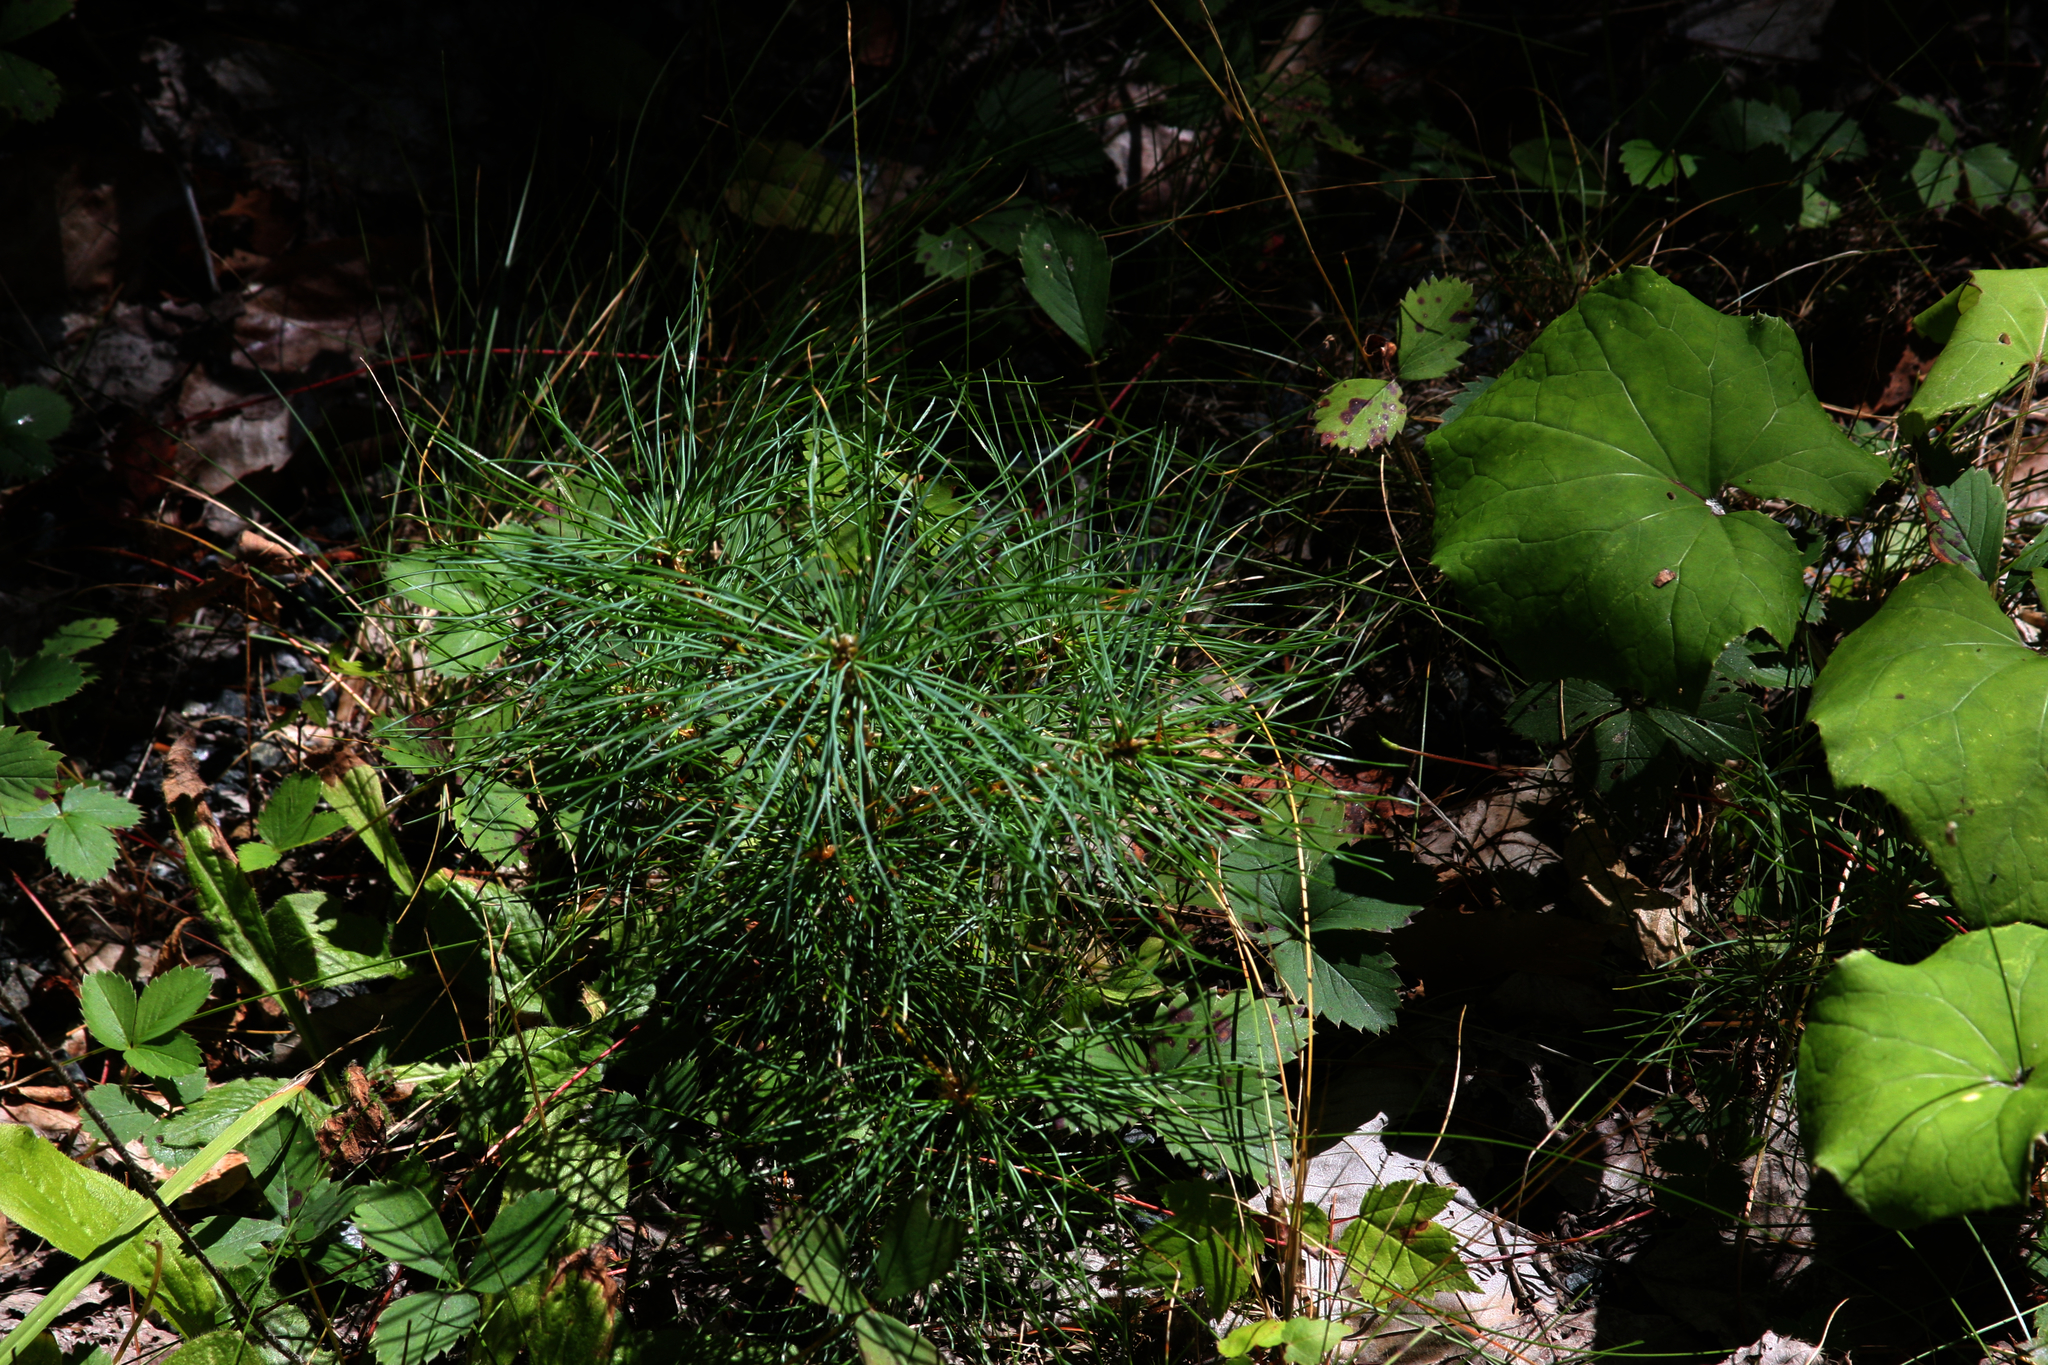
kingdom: Plantae
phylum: Tracheophyta
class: Pinopsida
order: Pinales
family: Pinaceae
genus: Pinus
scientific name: Pinus strobus
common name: Weymouth pine
